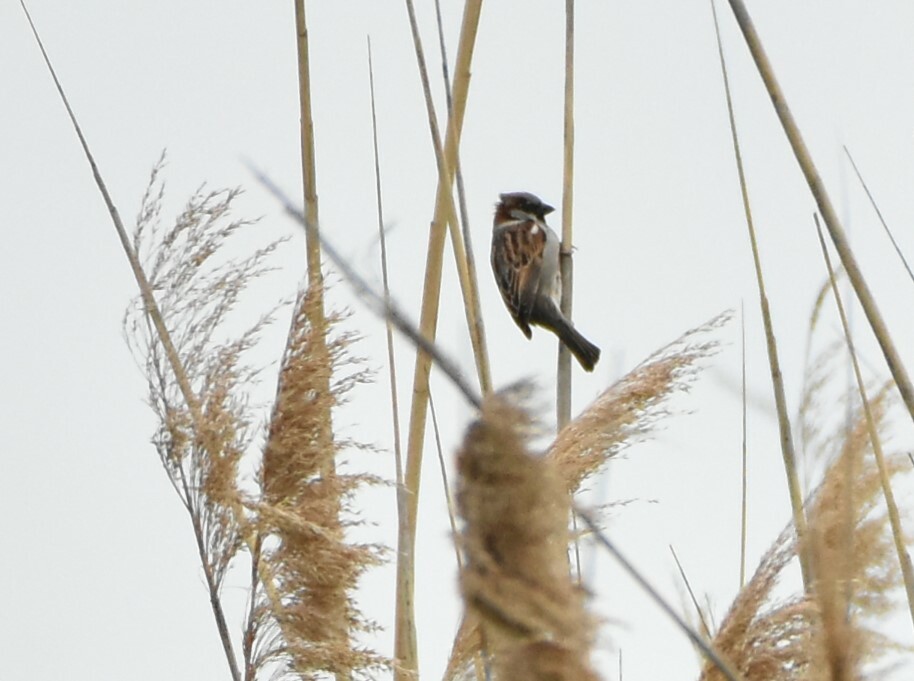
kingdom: Animalia
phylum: Chordata
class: Aves
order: Passeriformes
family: Passeridae
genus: Passer
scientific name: Passer domesticus
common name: House sparrow
